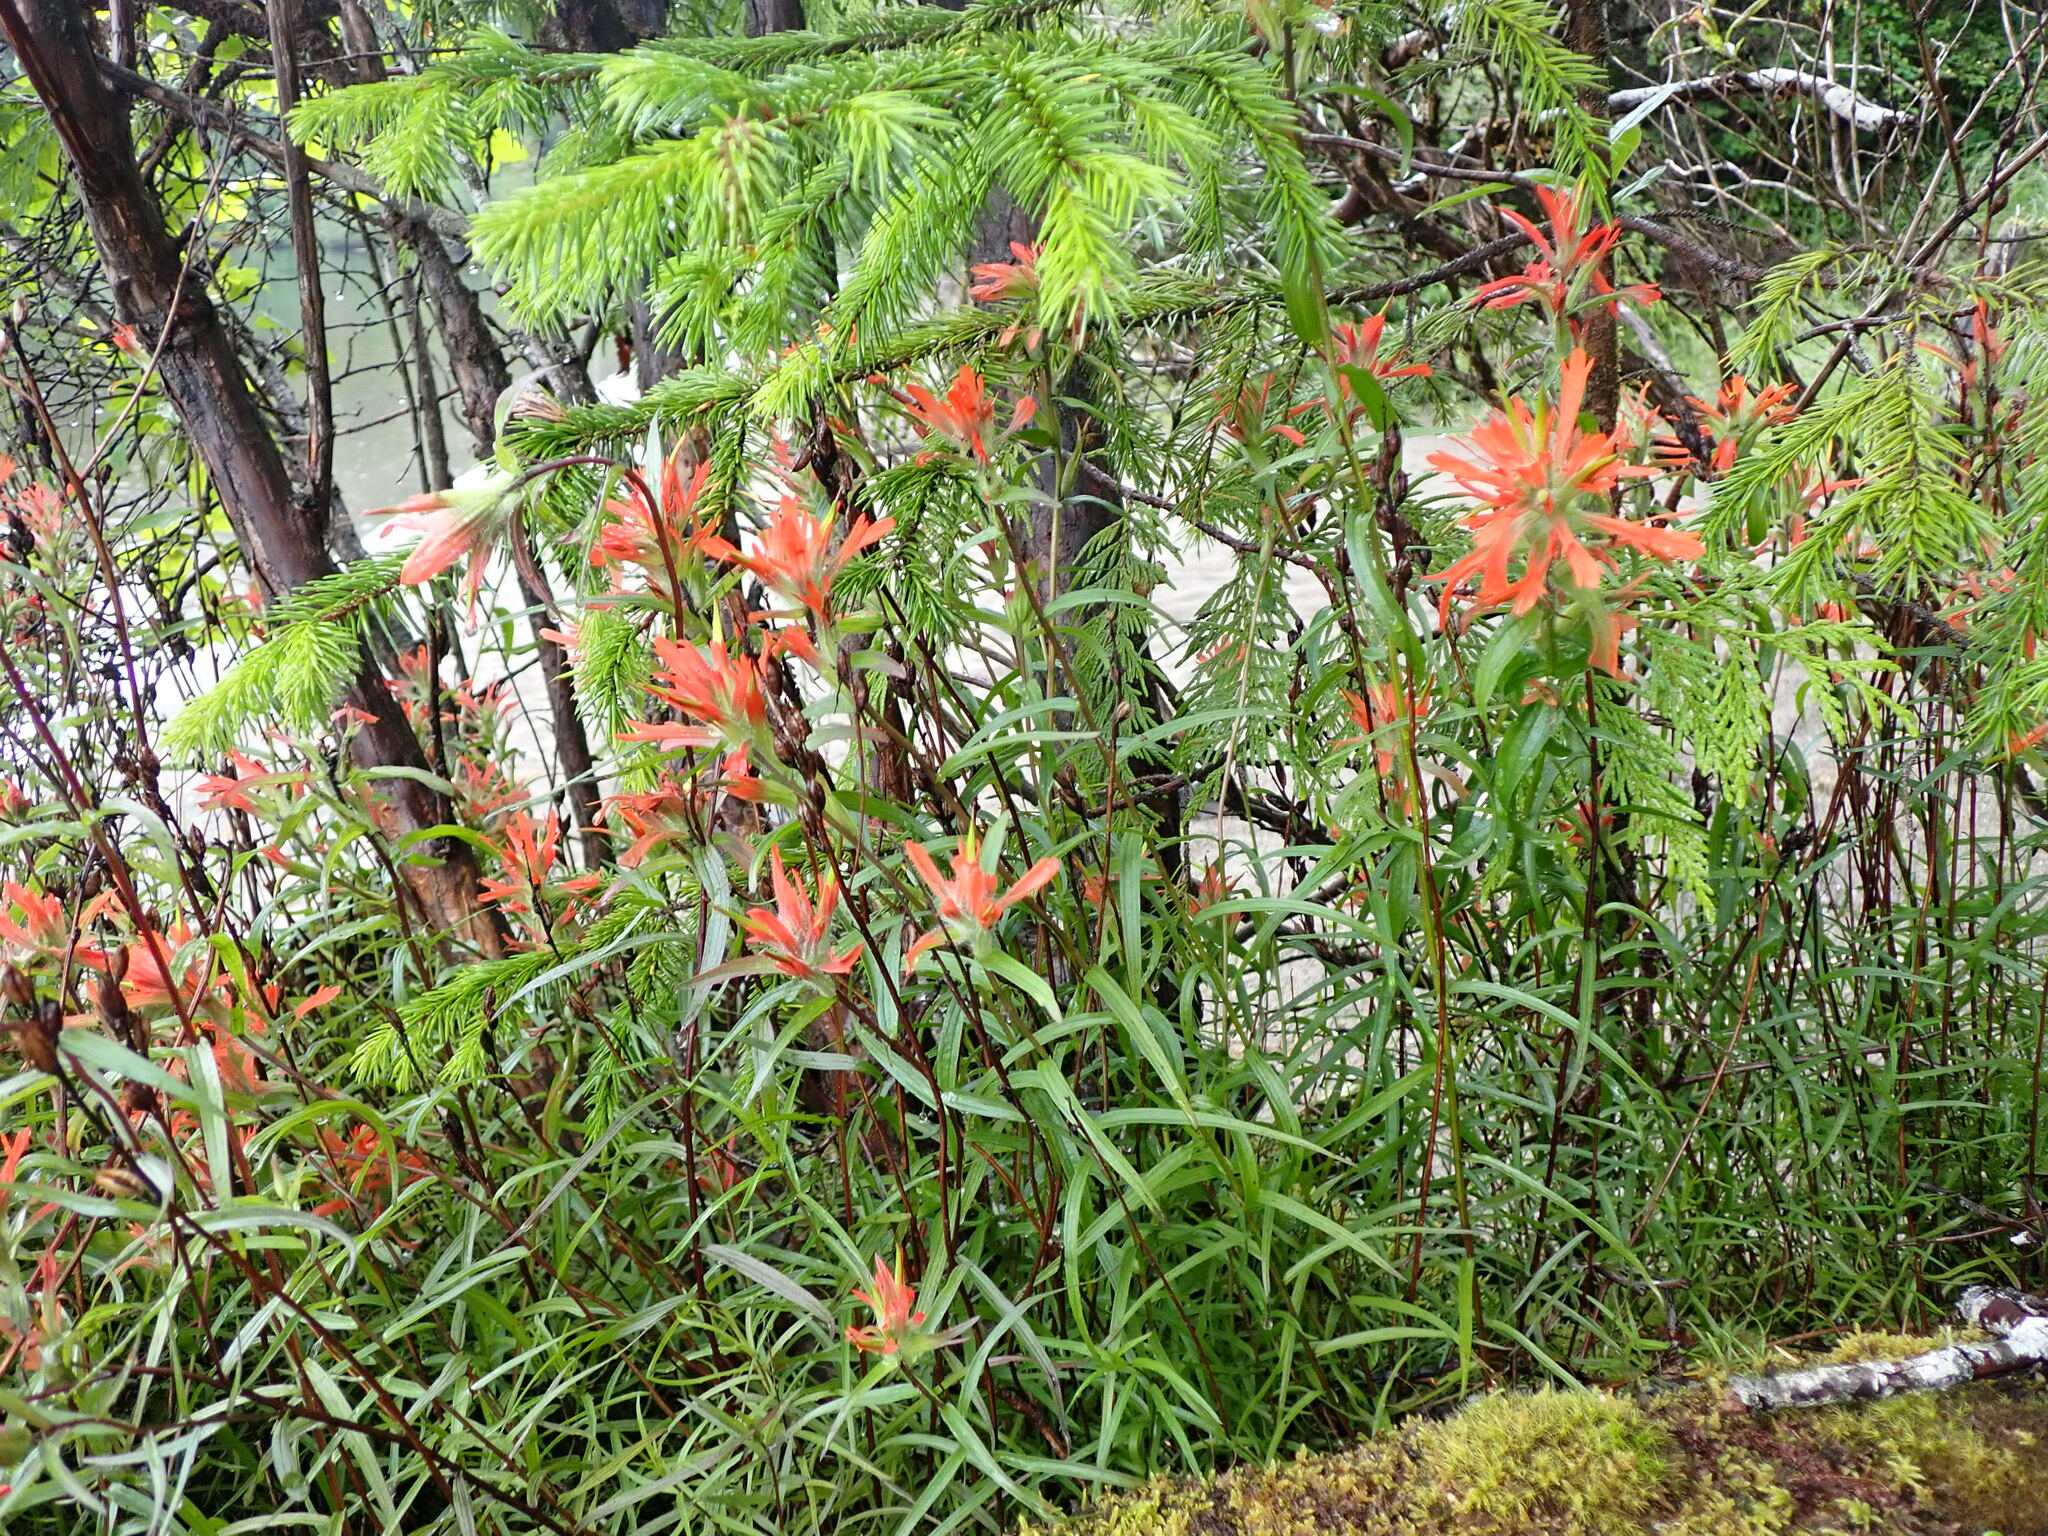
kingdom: Plantae
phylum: Tracheophyta
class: Magnoliopsida
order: Lamiales
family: Orobanchaceae
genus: Castilleja
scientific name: Castilleja miniata
